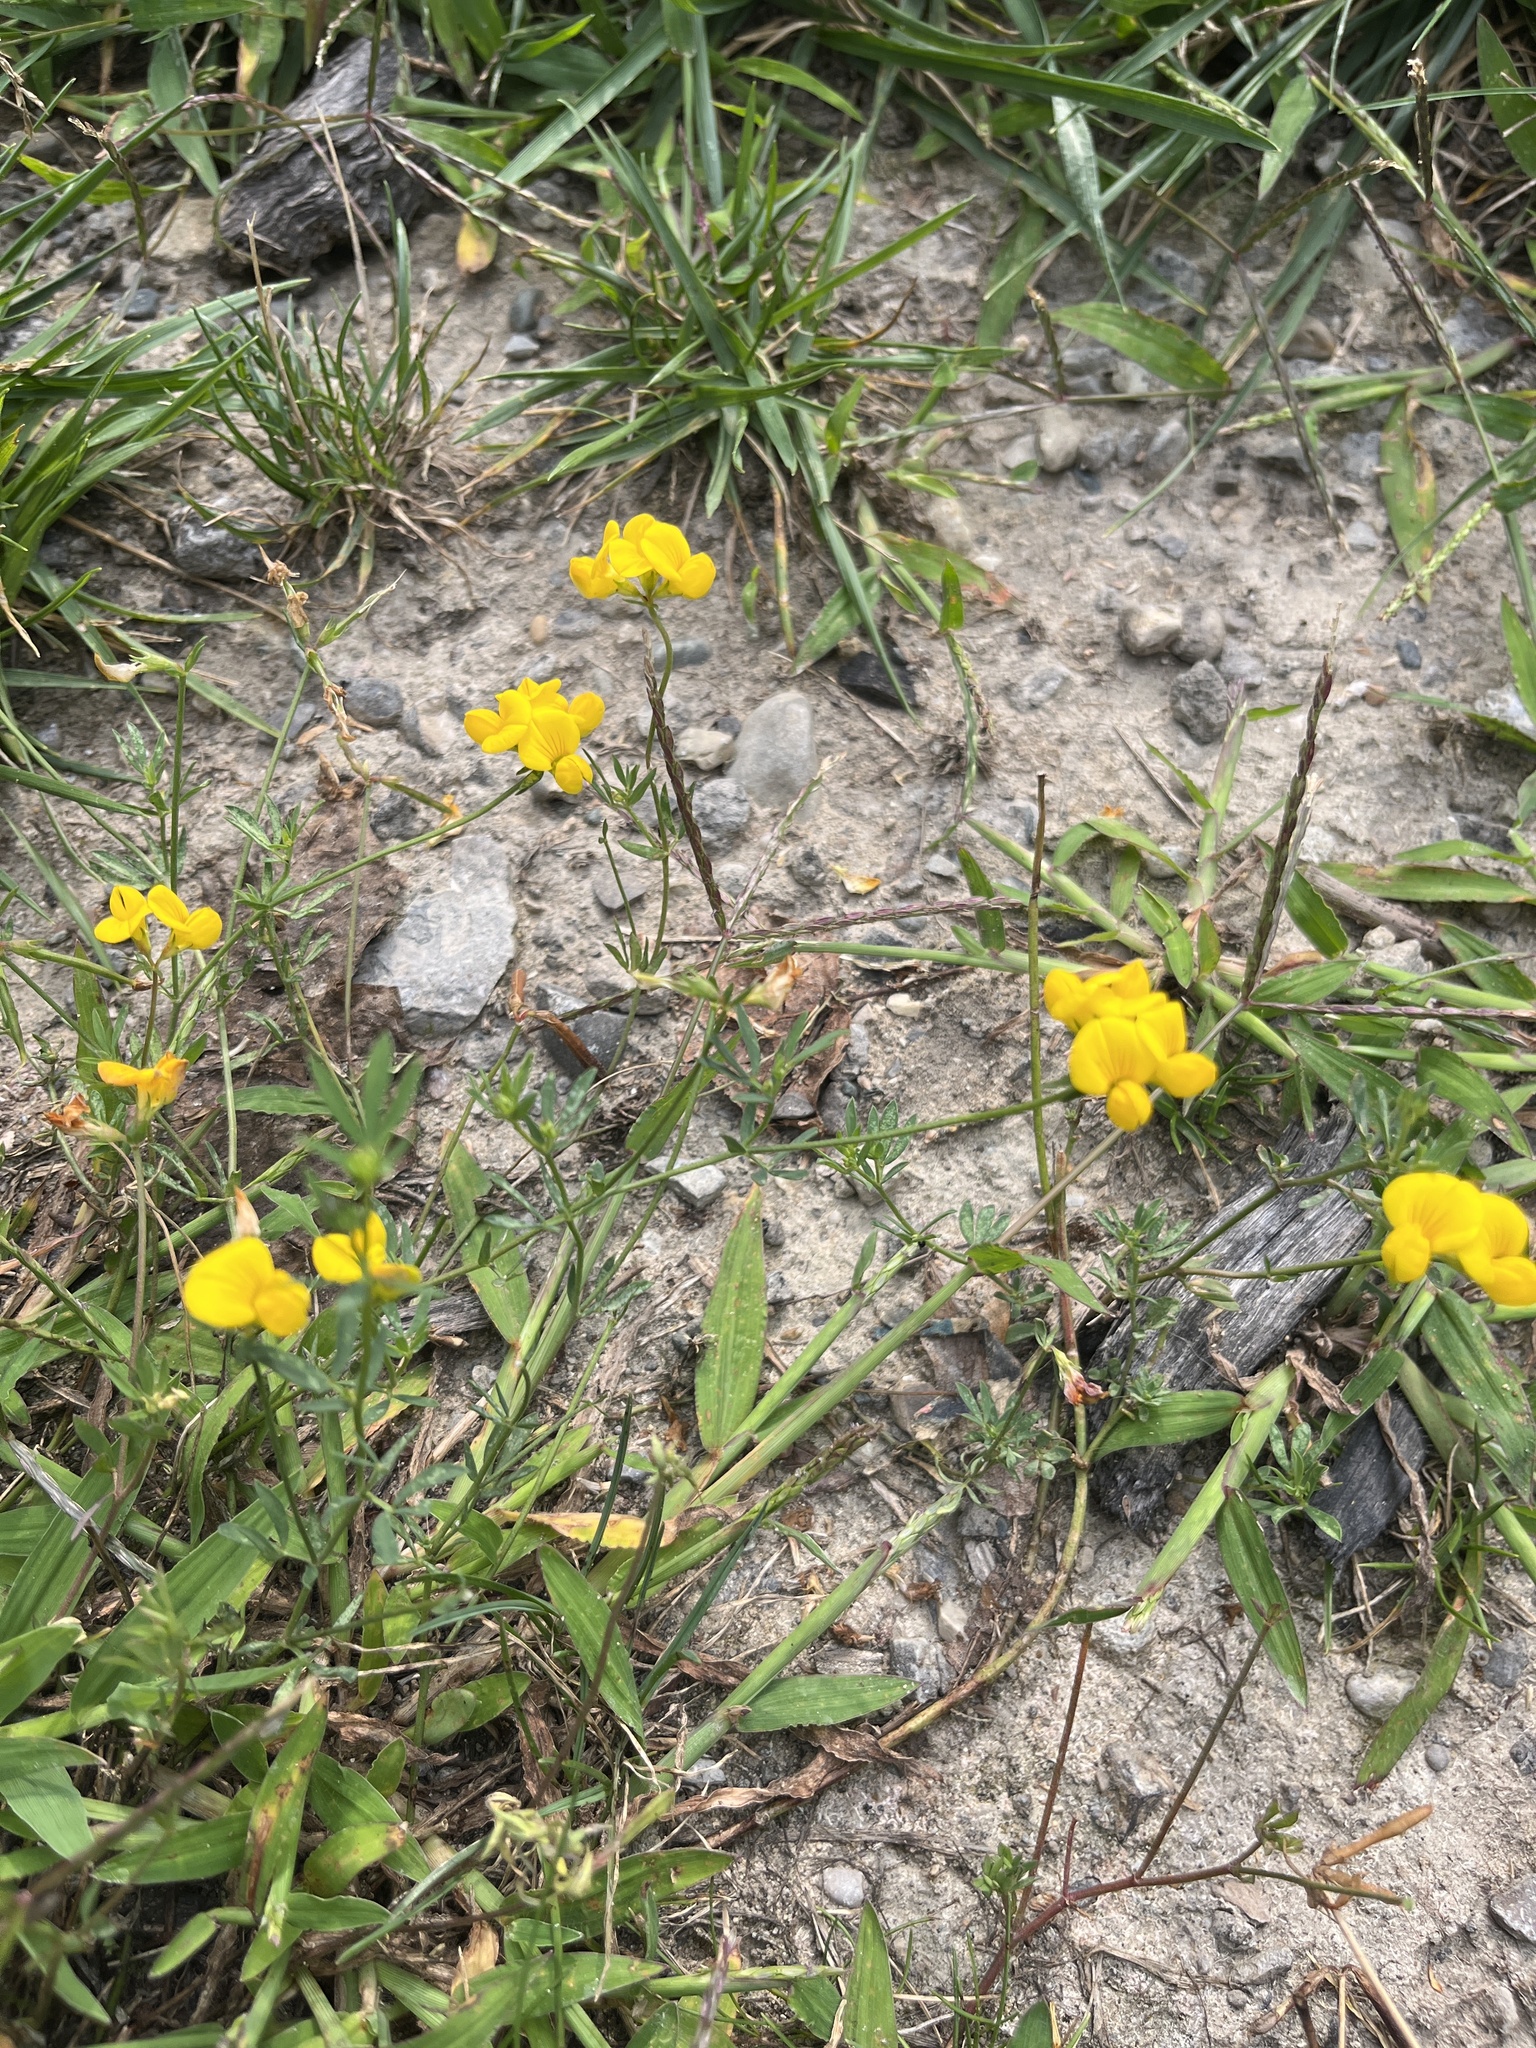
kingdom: Plantae
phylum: Tracheophyta
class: Magnoliopsida
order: Fabales
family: Fabaceae
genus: Lotus
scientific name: Lotus tenuis
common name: Narrow-leaved bird's-foot-trefoil
